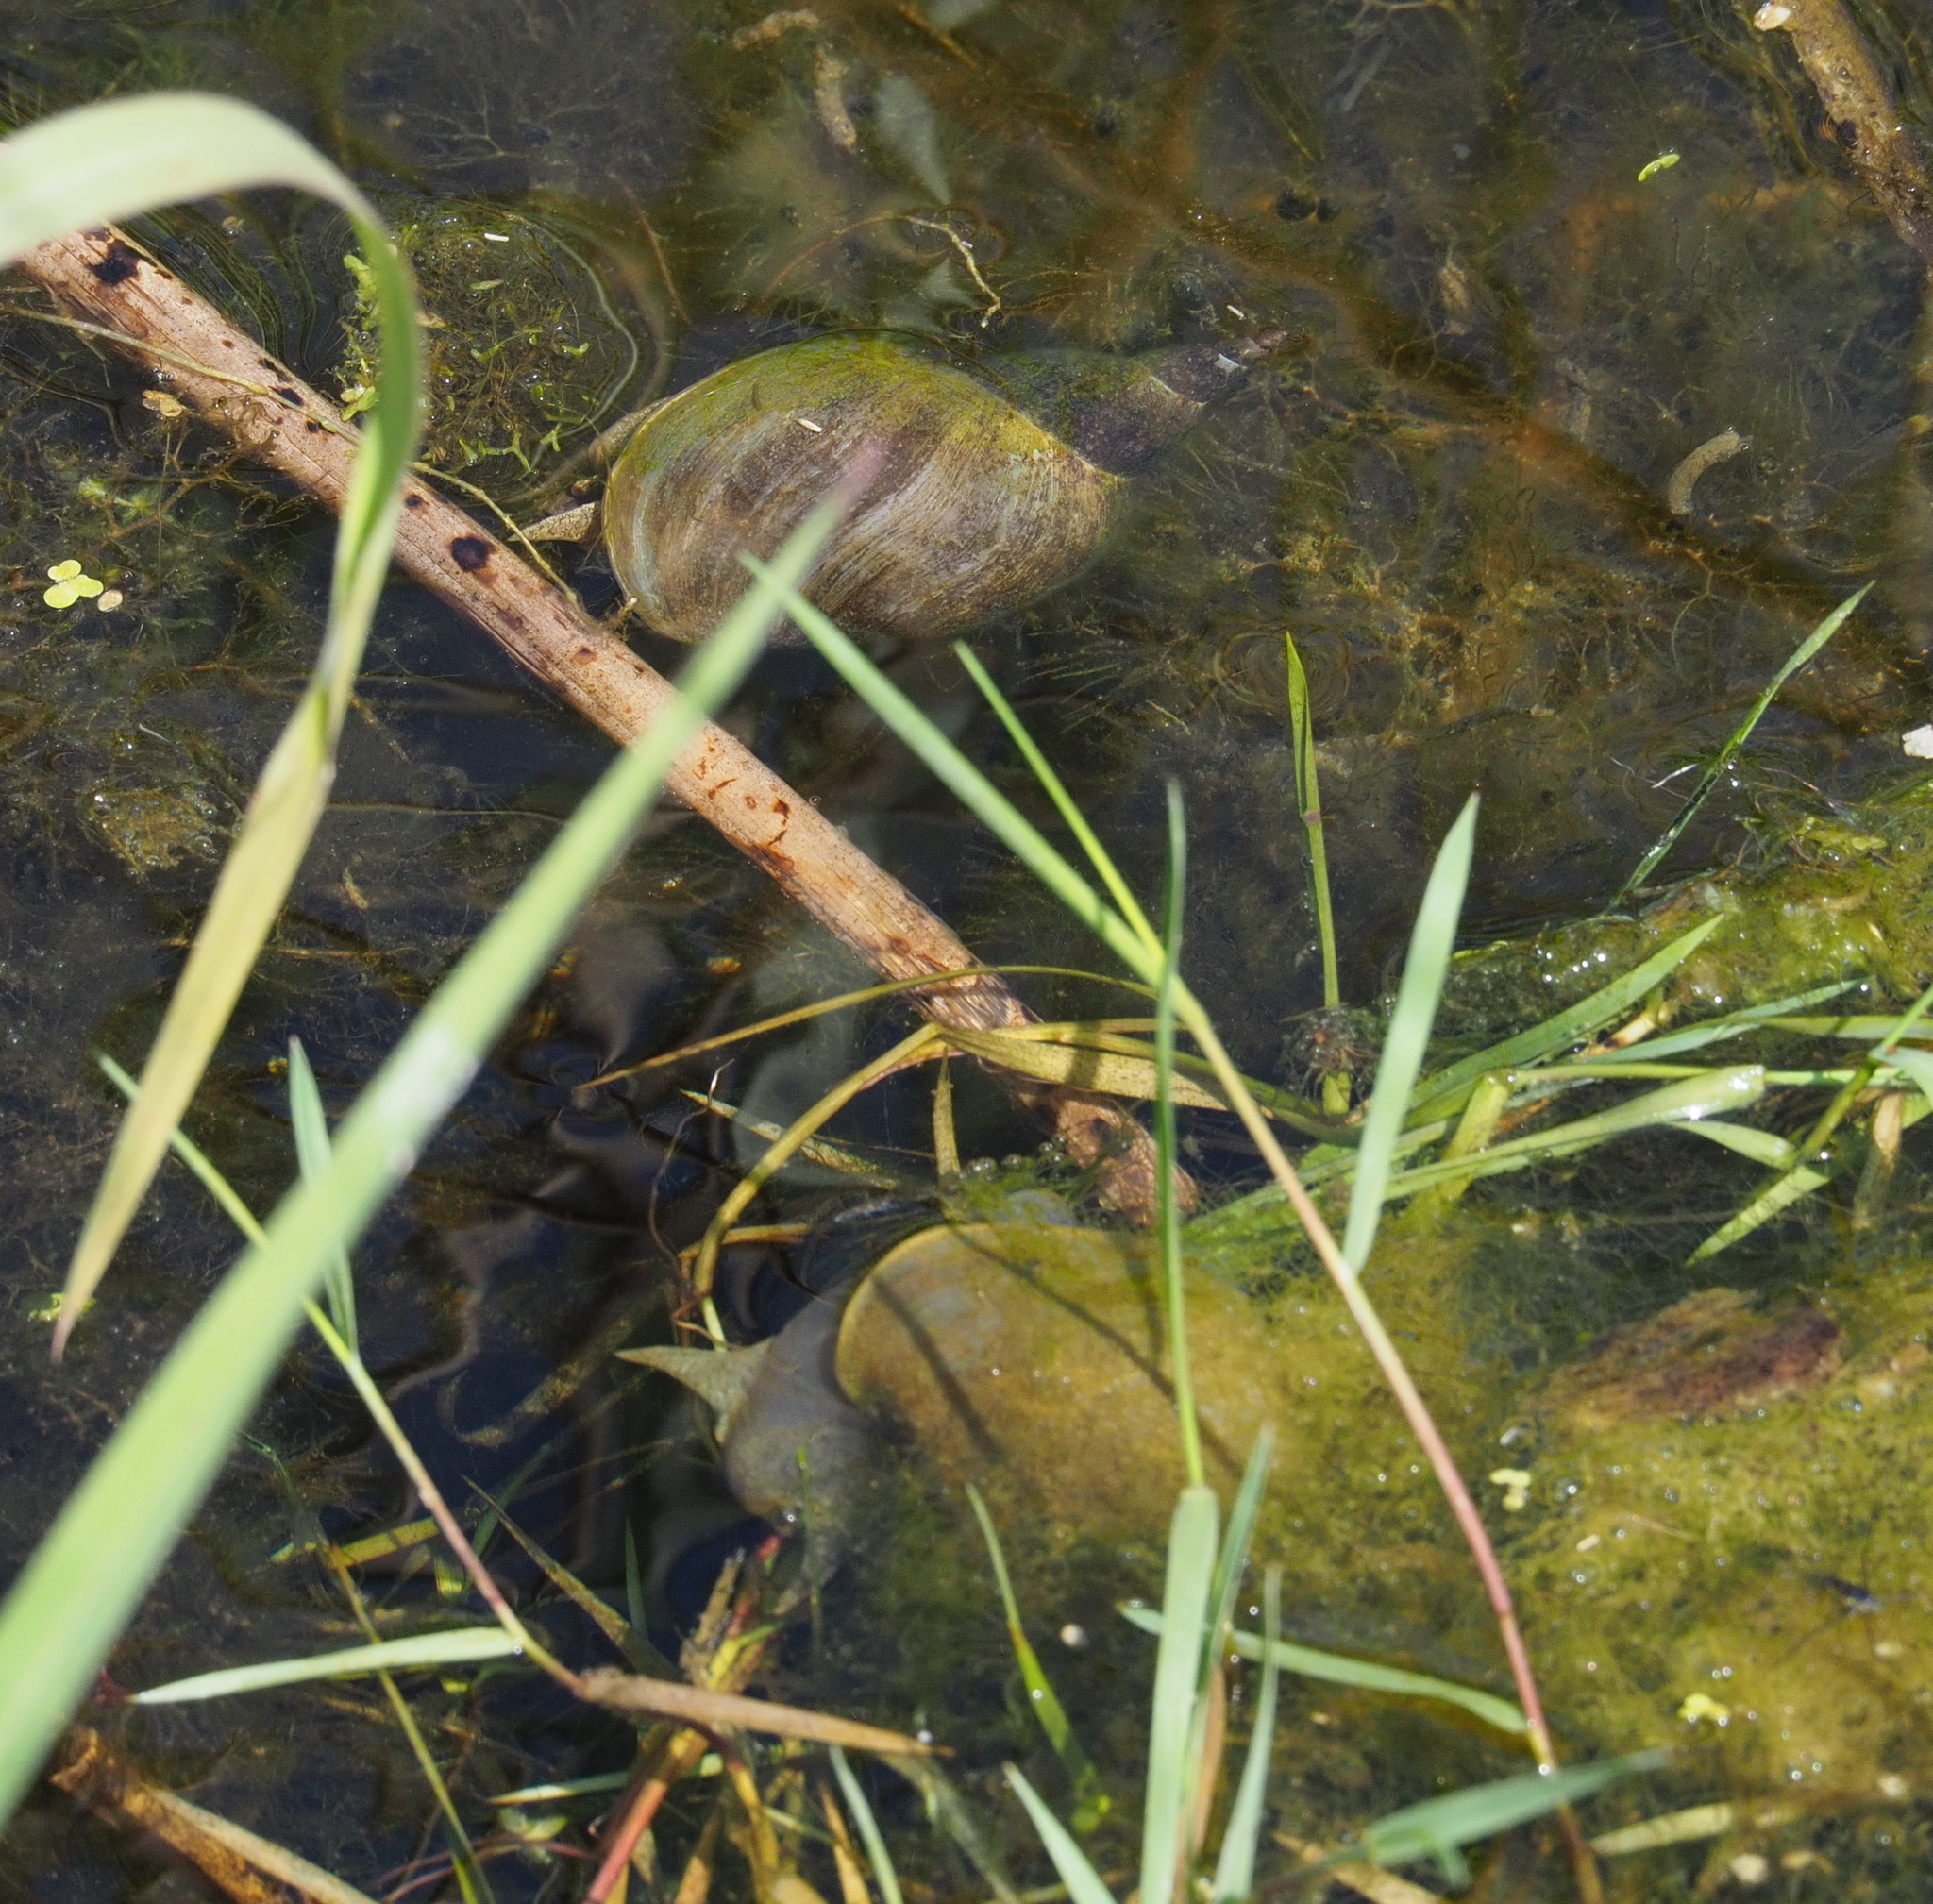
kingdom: Animalia
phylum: Mollusca
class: Gastropoda
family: Lymnaeidae
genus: Lymnaea
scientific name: Lymnaea stagnalis
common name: Great pond snail
